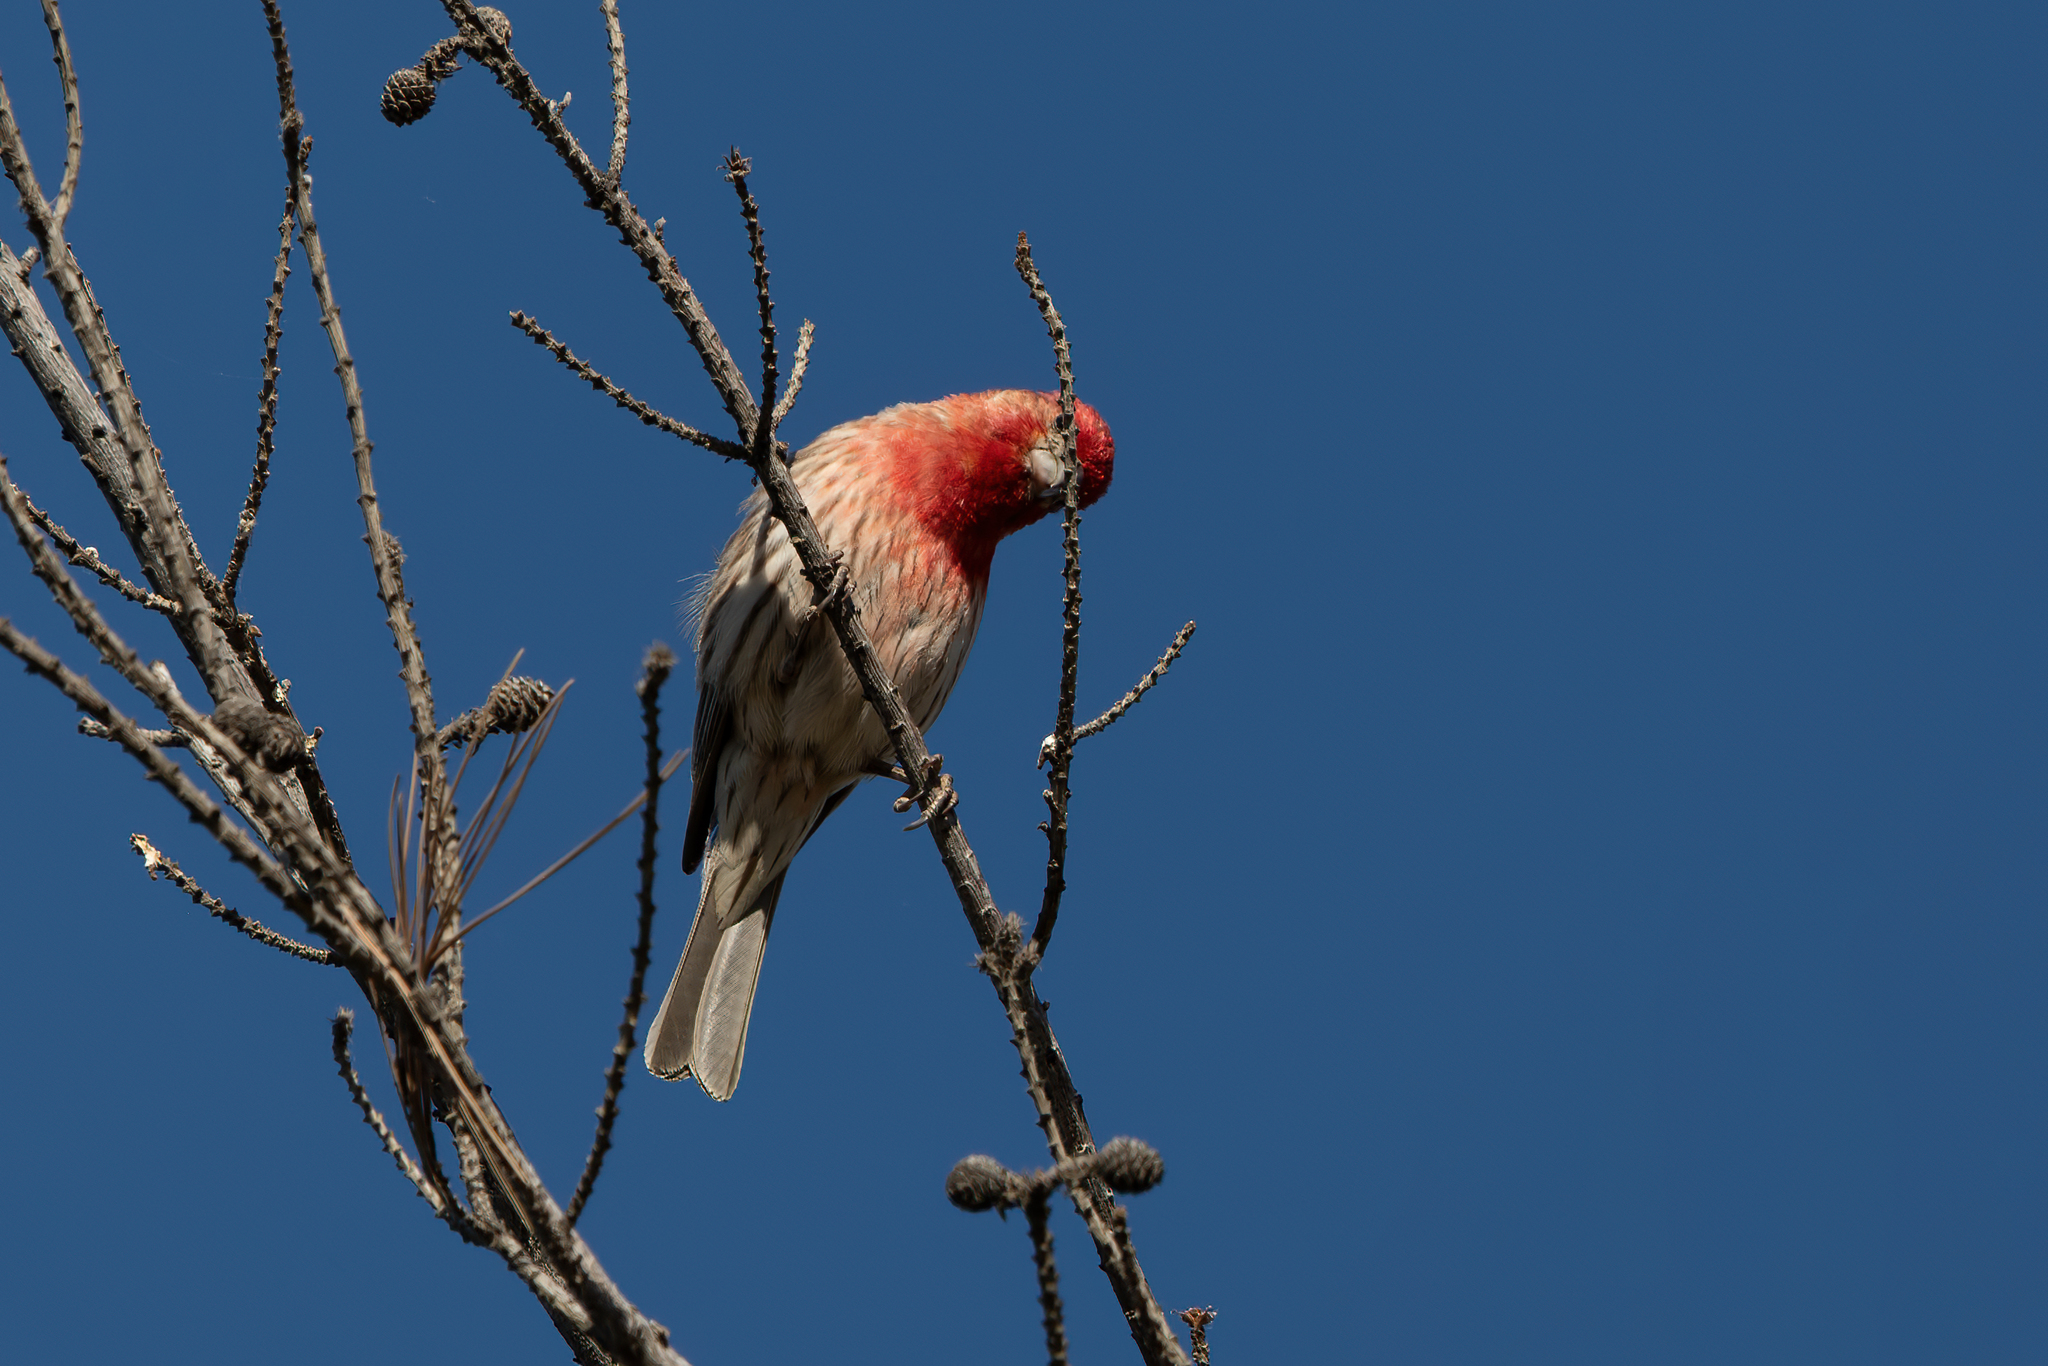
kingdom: Animalia
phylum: Chordata
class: Aves
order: Passeriformes
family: Fringillidae
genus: Haemorhous
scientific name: Haemorhous mexicanus
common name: House finch
